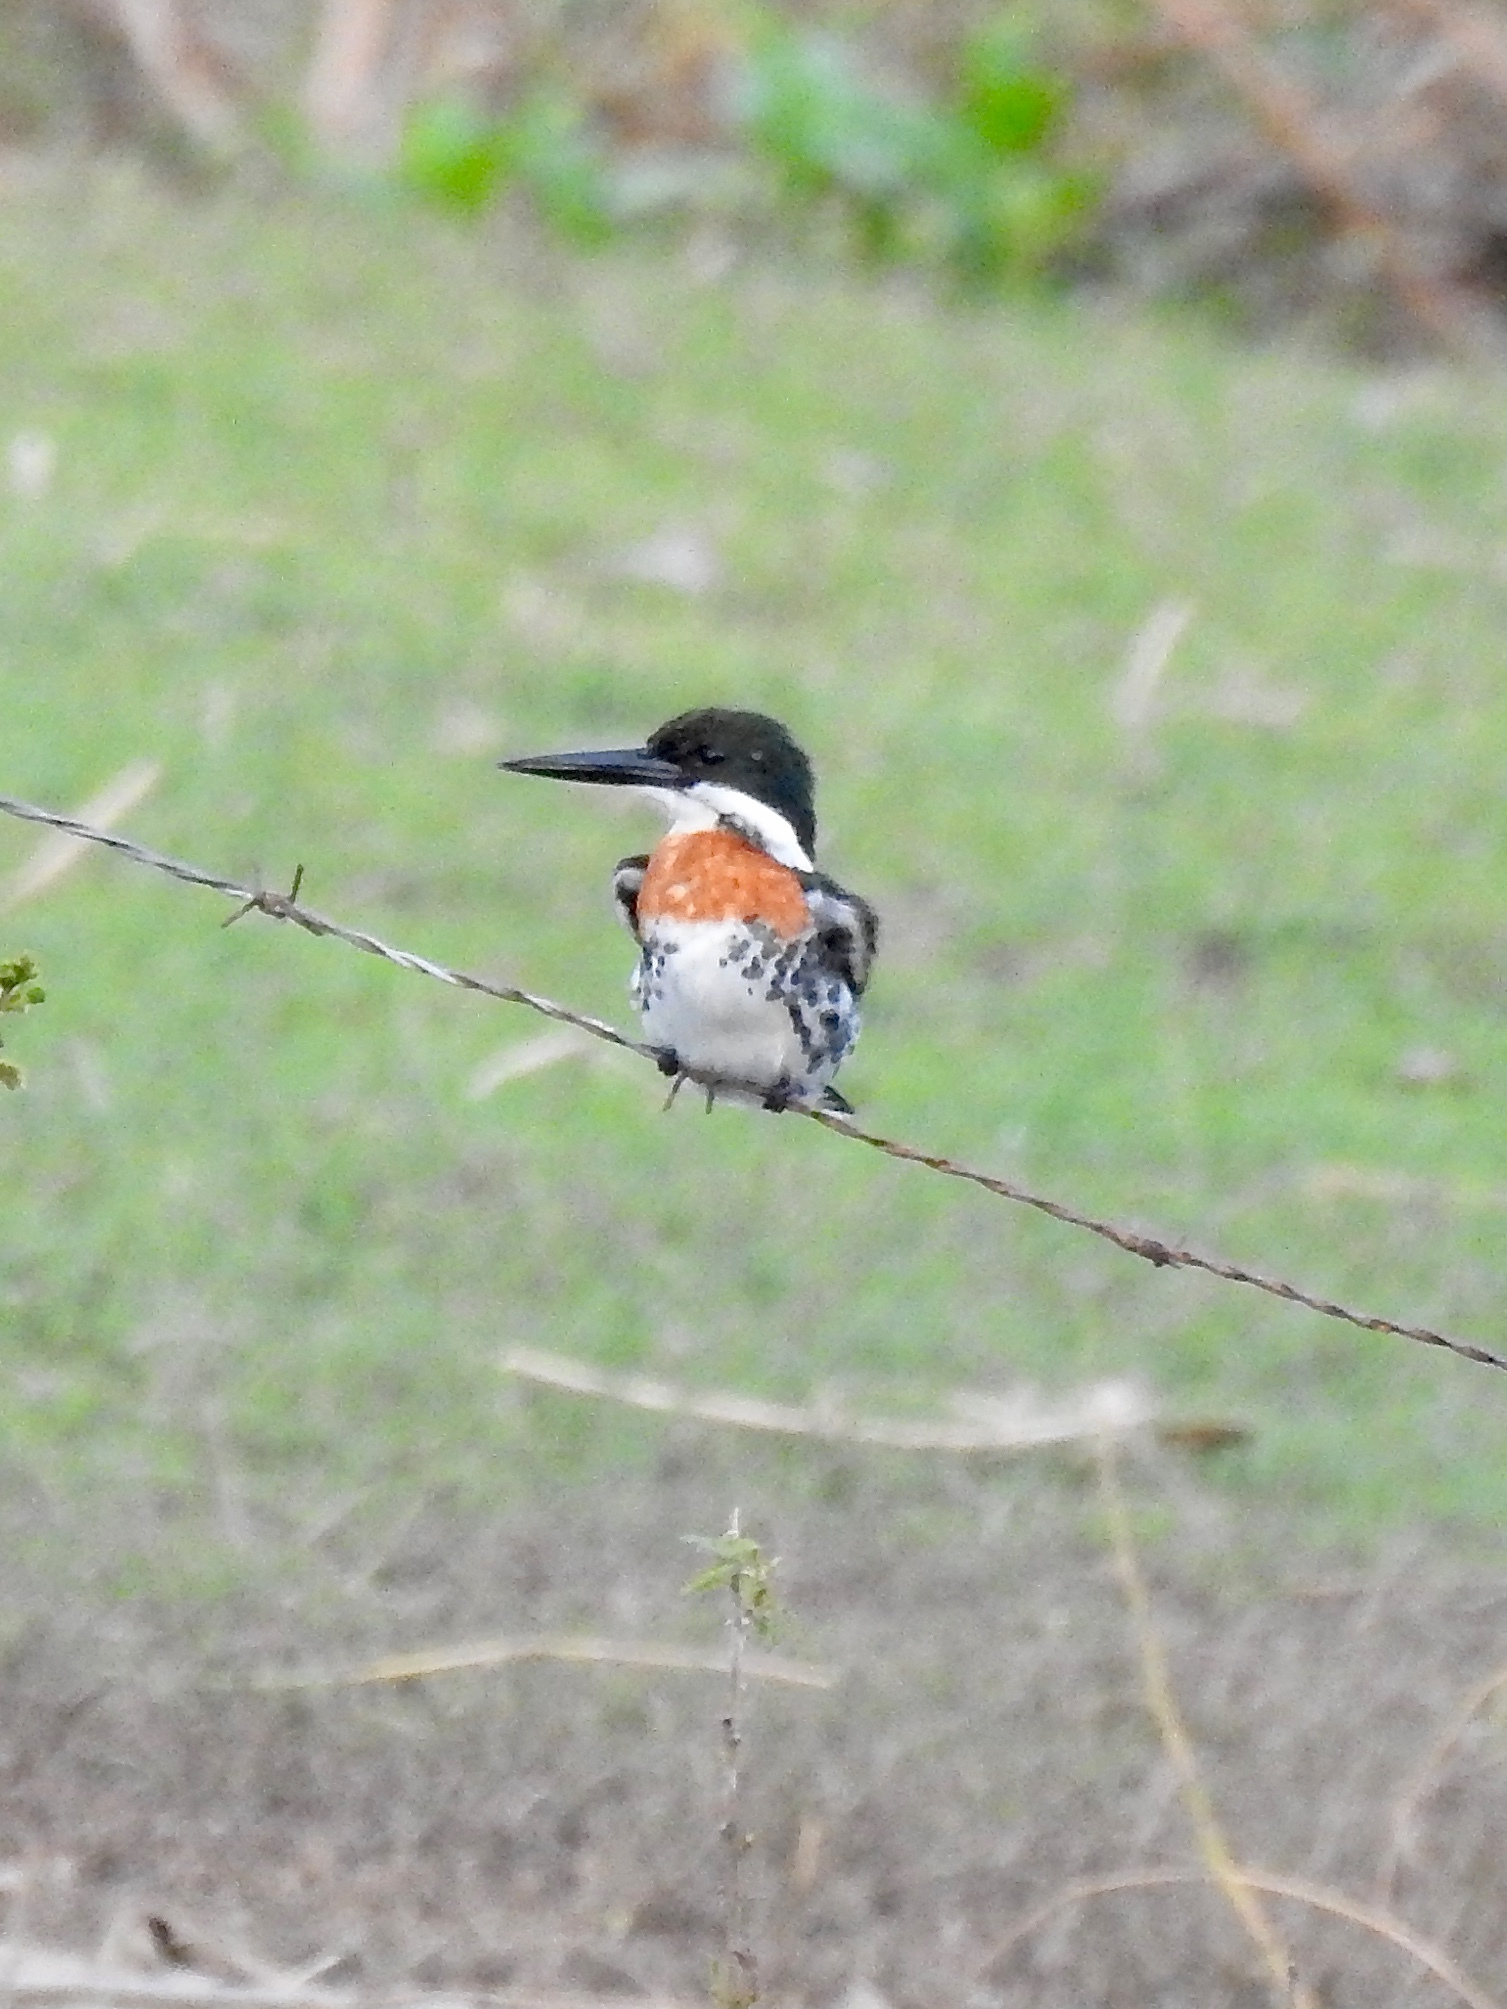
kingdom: Animalia
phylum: Chordata
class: Aves
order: Coraciiformes
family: Alcedinidae
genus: Chloroceryle
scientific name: Chloroceryle americana
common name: Green kingfisher
